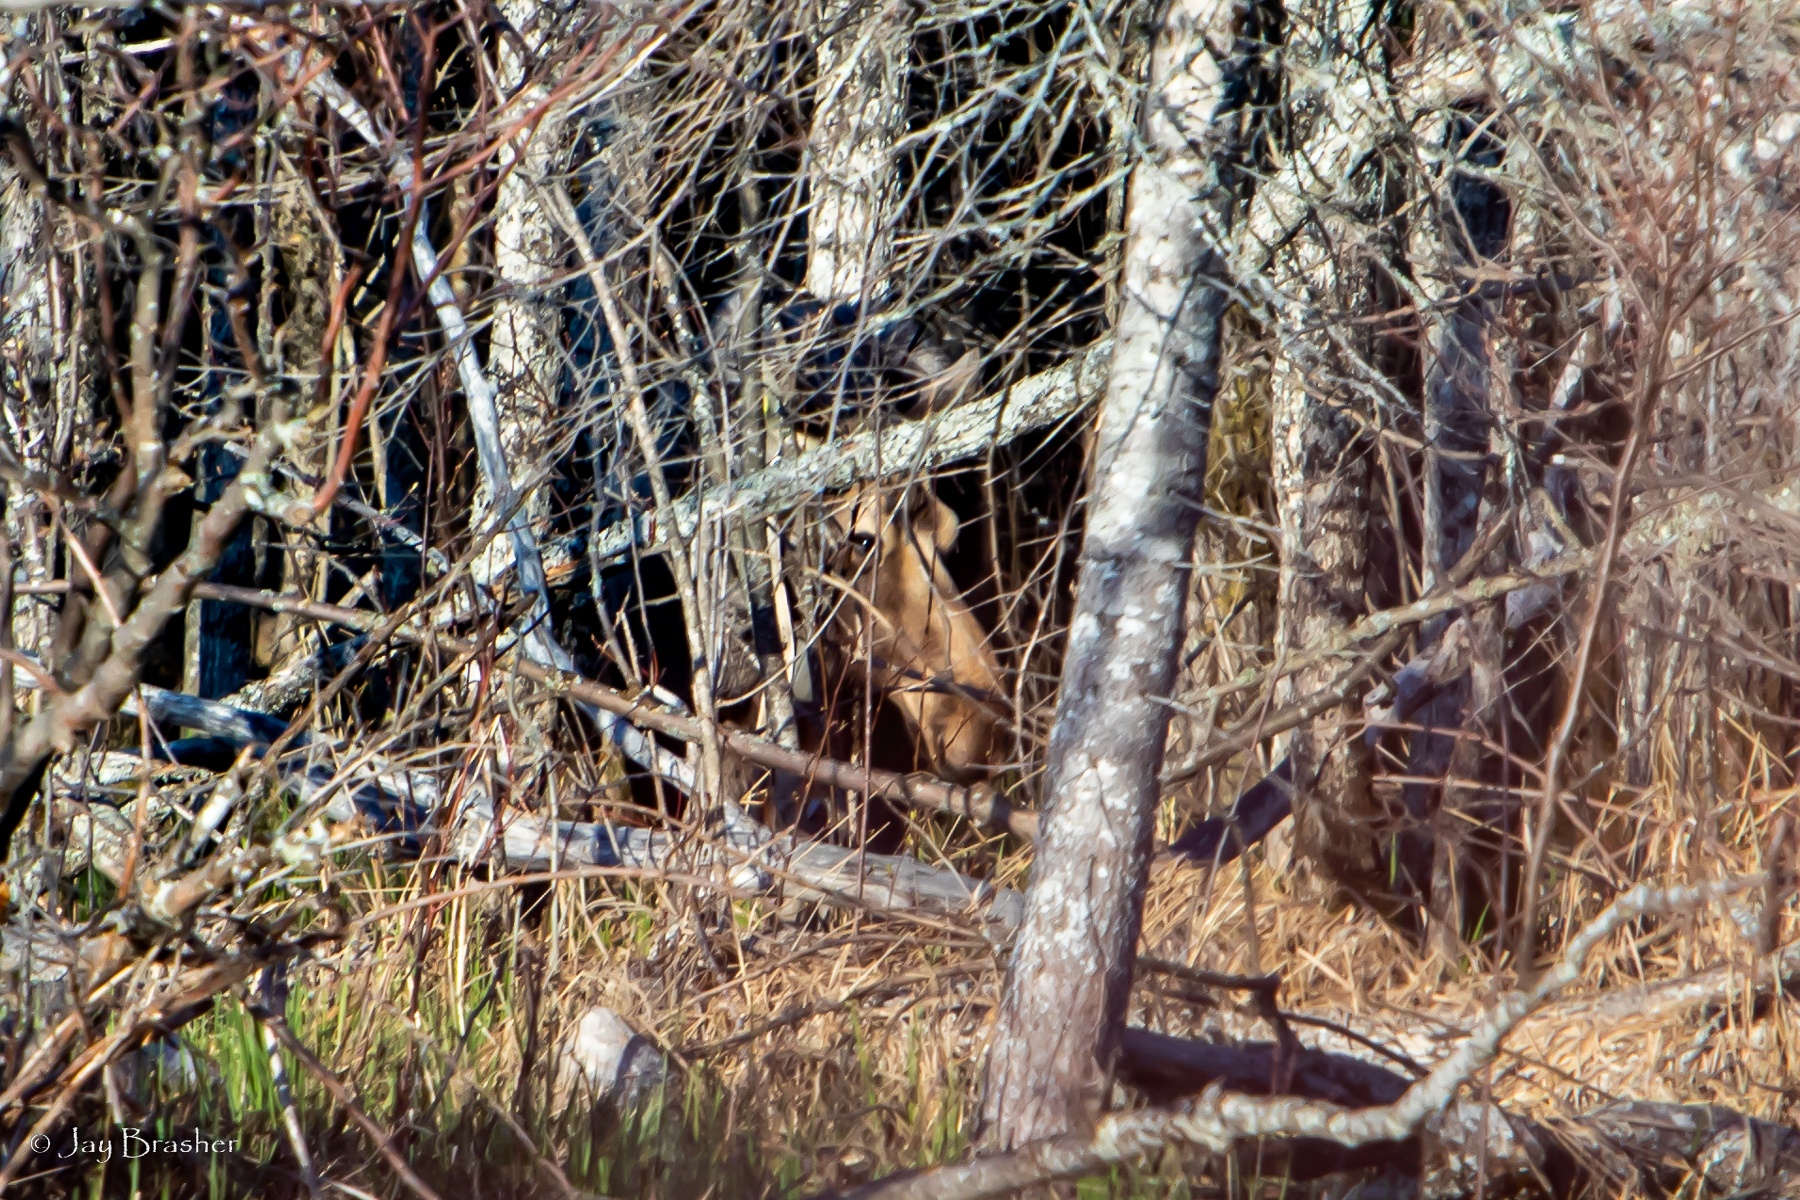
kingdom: Animalia
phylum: Chordata
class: Mammalia
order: Artiodactyla
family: Cervidae
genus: Alces
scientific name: Alces americanus
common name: Moose
